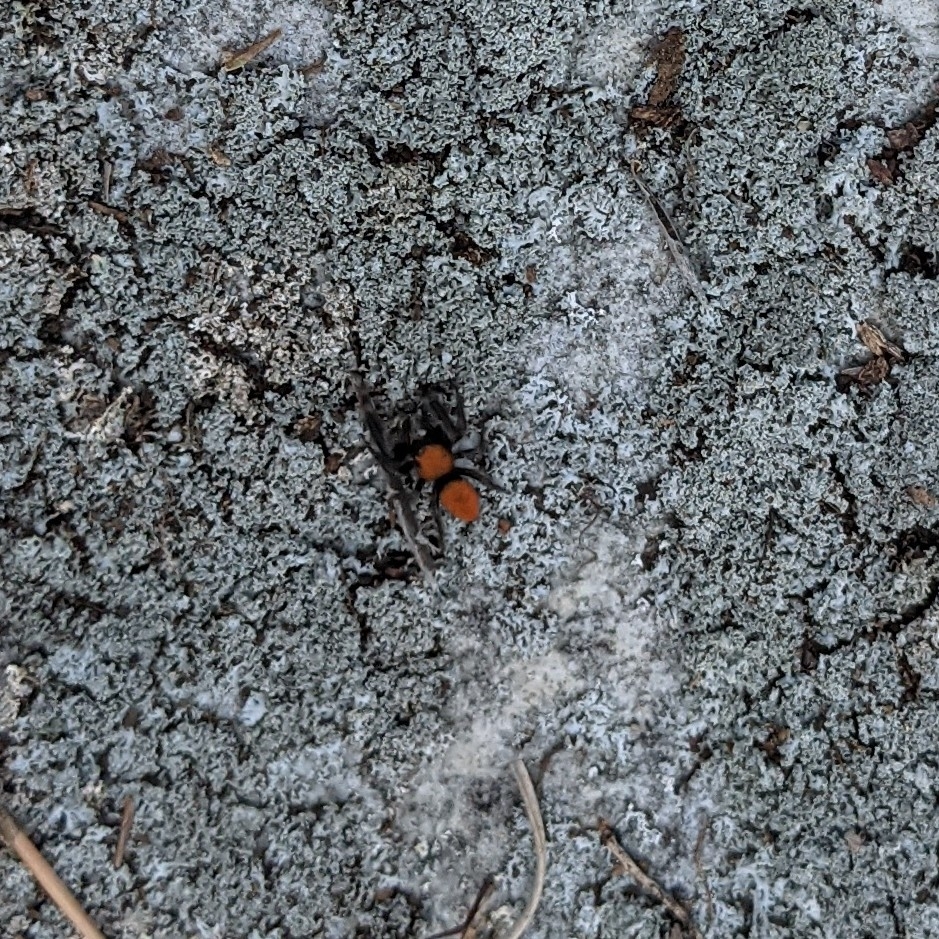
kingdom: Animalia
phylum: Arthropoda
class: Arachnida
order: Araneae
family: Salticidae
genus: Phidippus
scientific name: Phidippus cardinalis
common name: Cardinal jumper
